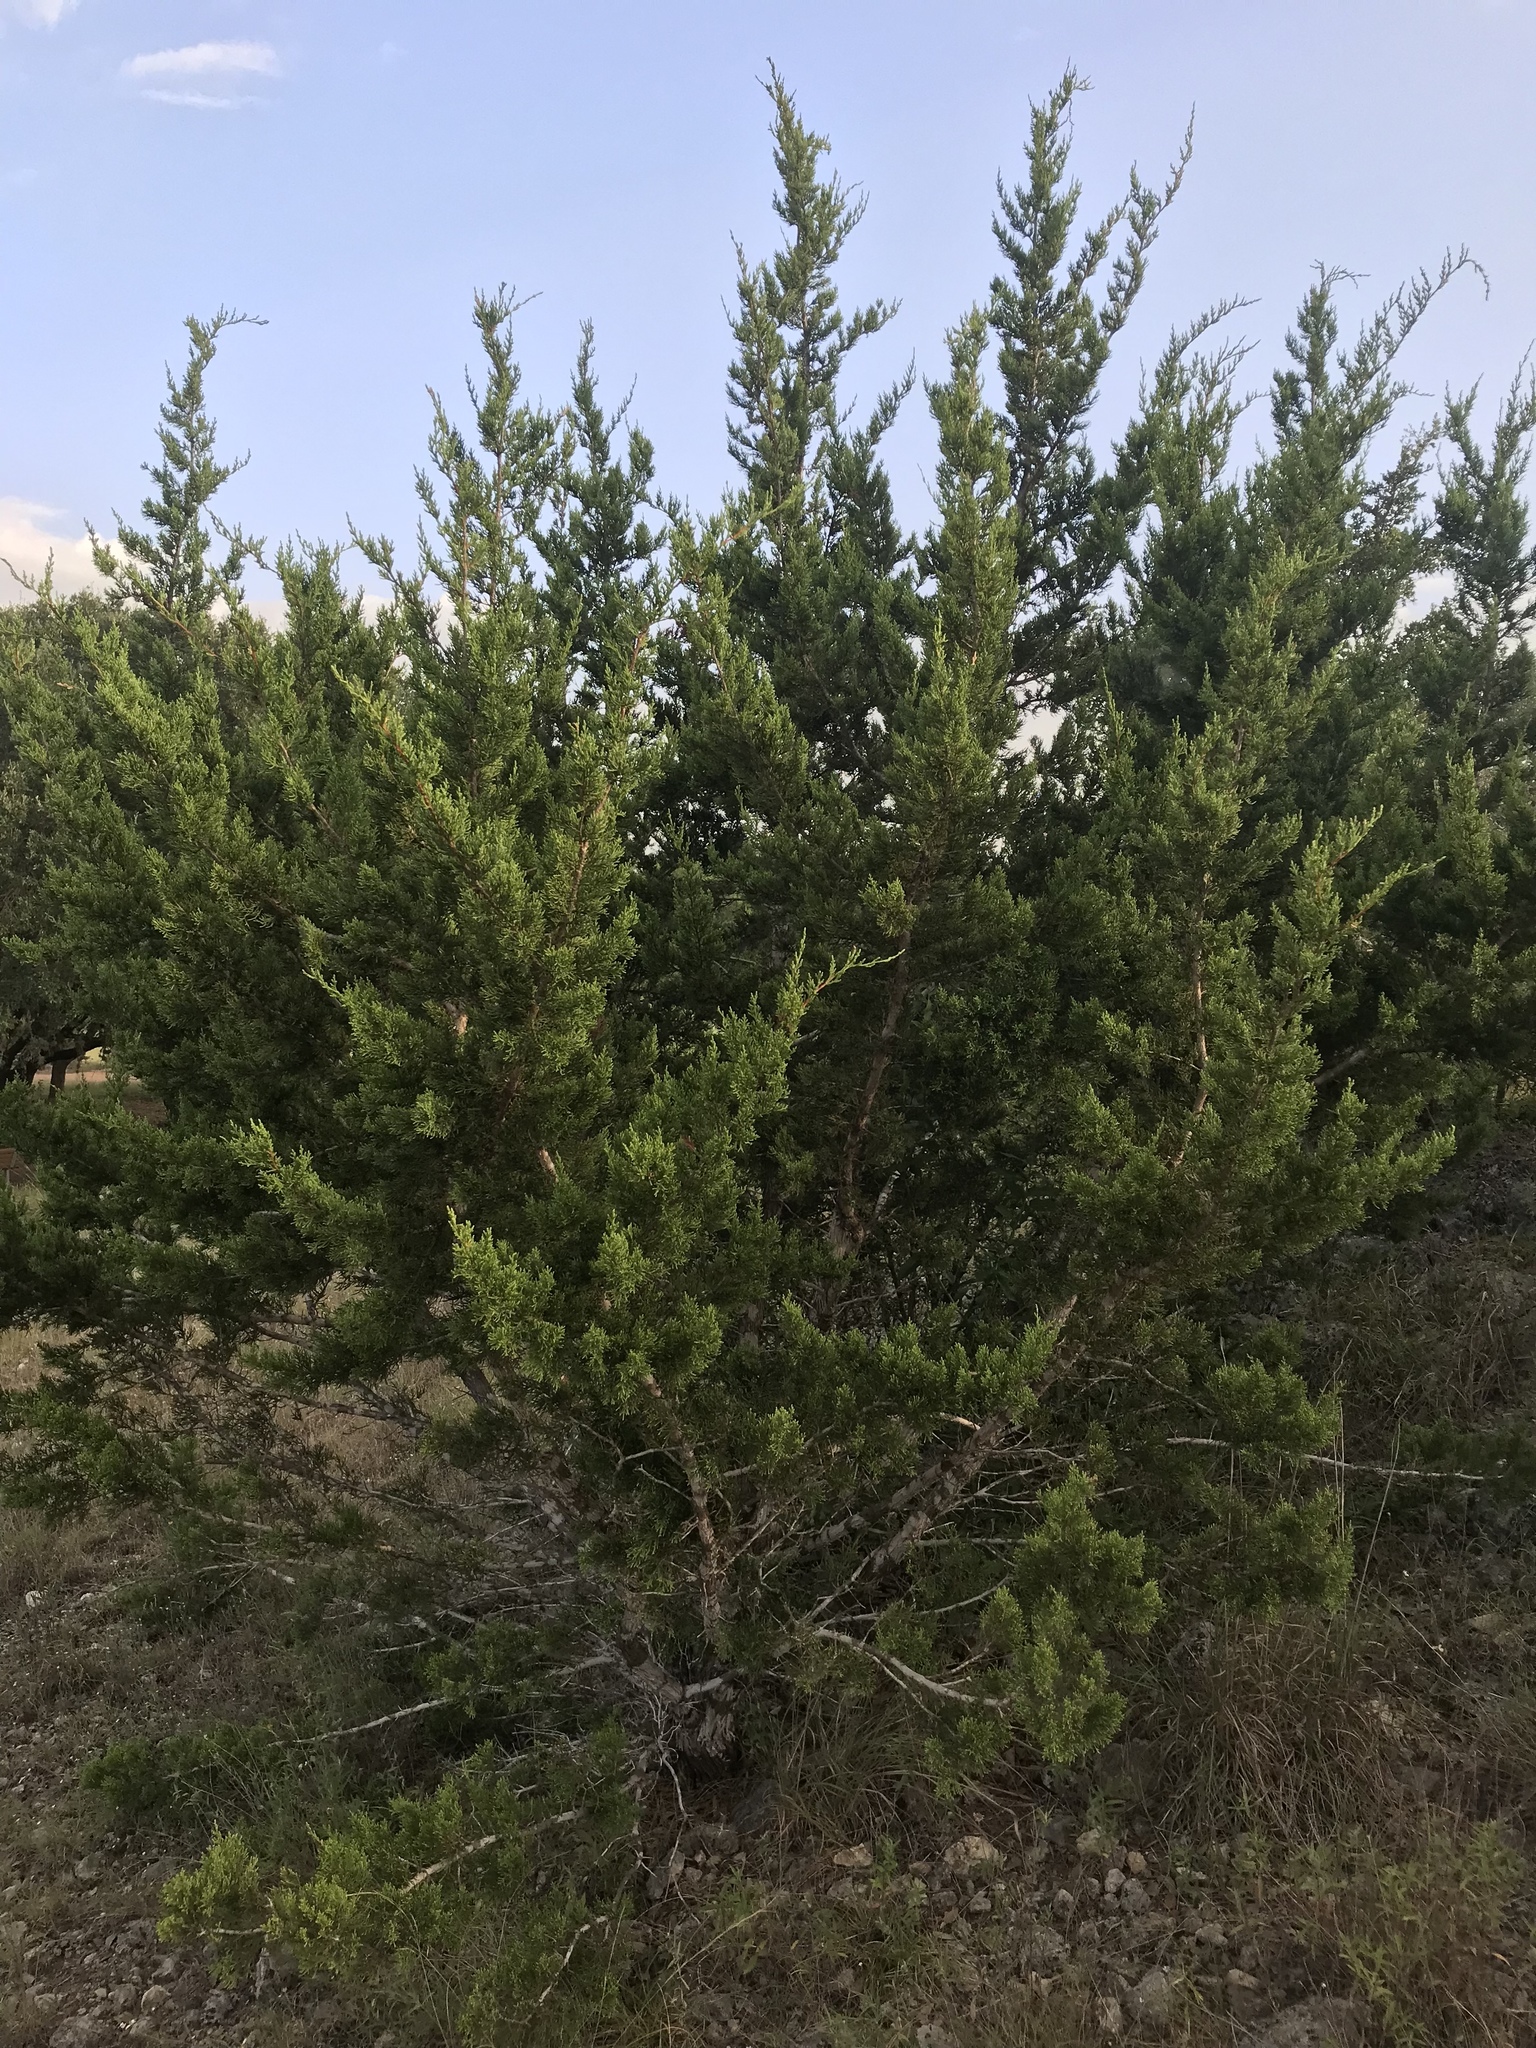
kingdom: Plantae
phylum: Tracheophyta
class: Pinopsida
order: Pinales
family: Cupressaceae
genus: Juniperus
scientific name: Juniperus ashei
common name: Mexican juniper
